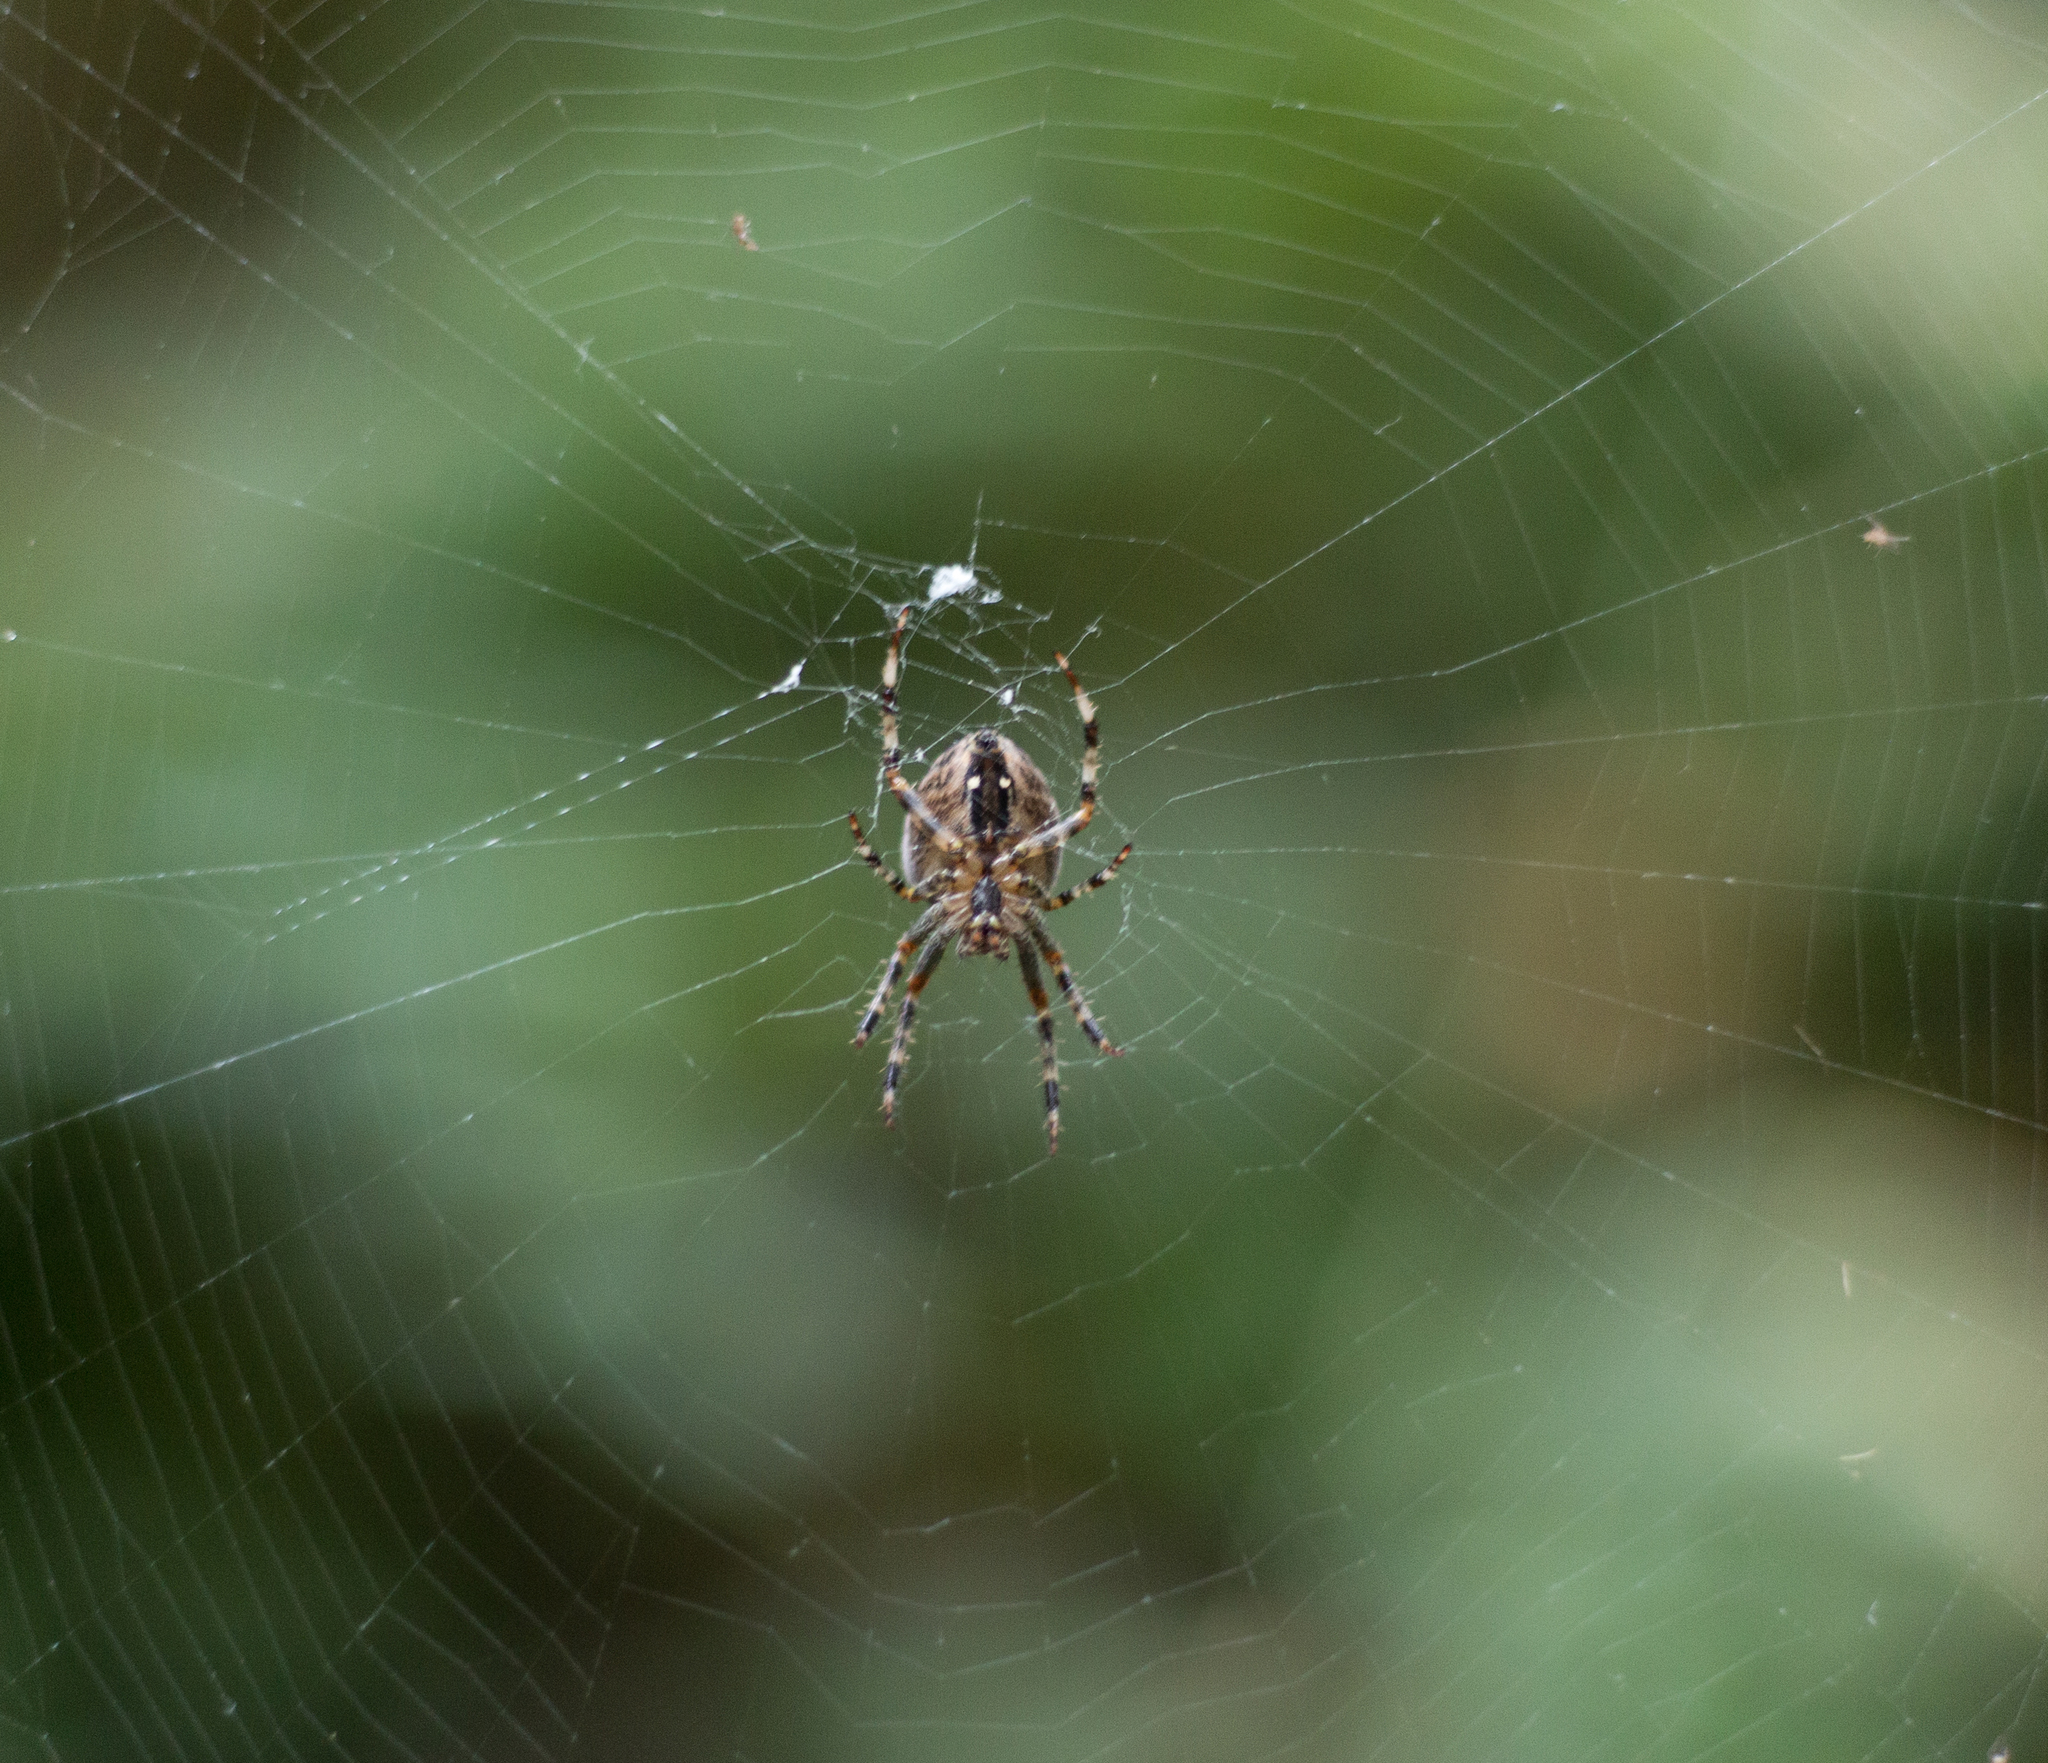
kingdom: Animalia
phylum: Arthropoda
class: Arachnida
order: Araneae
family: Araneidae
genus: Araneus
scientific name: Araneus diadematus
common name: Cross orbweaver
